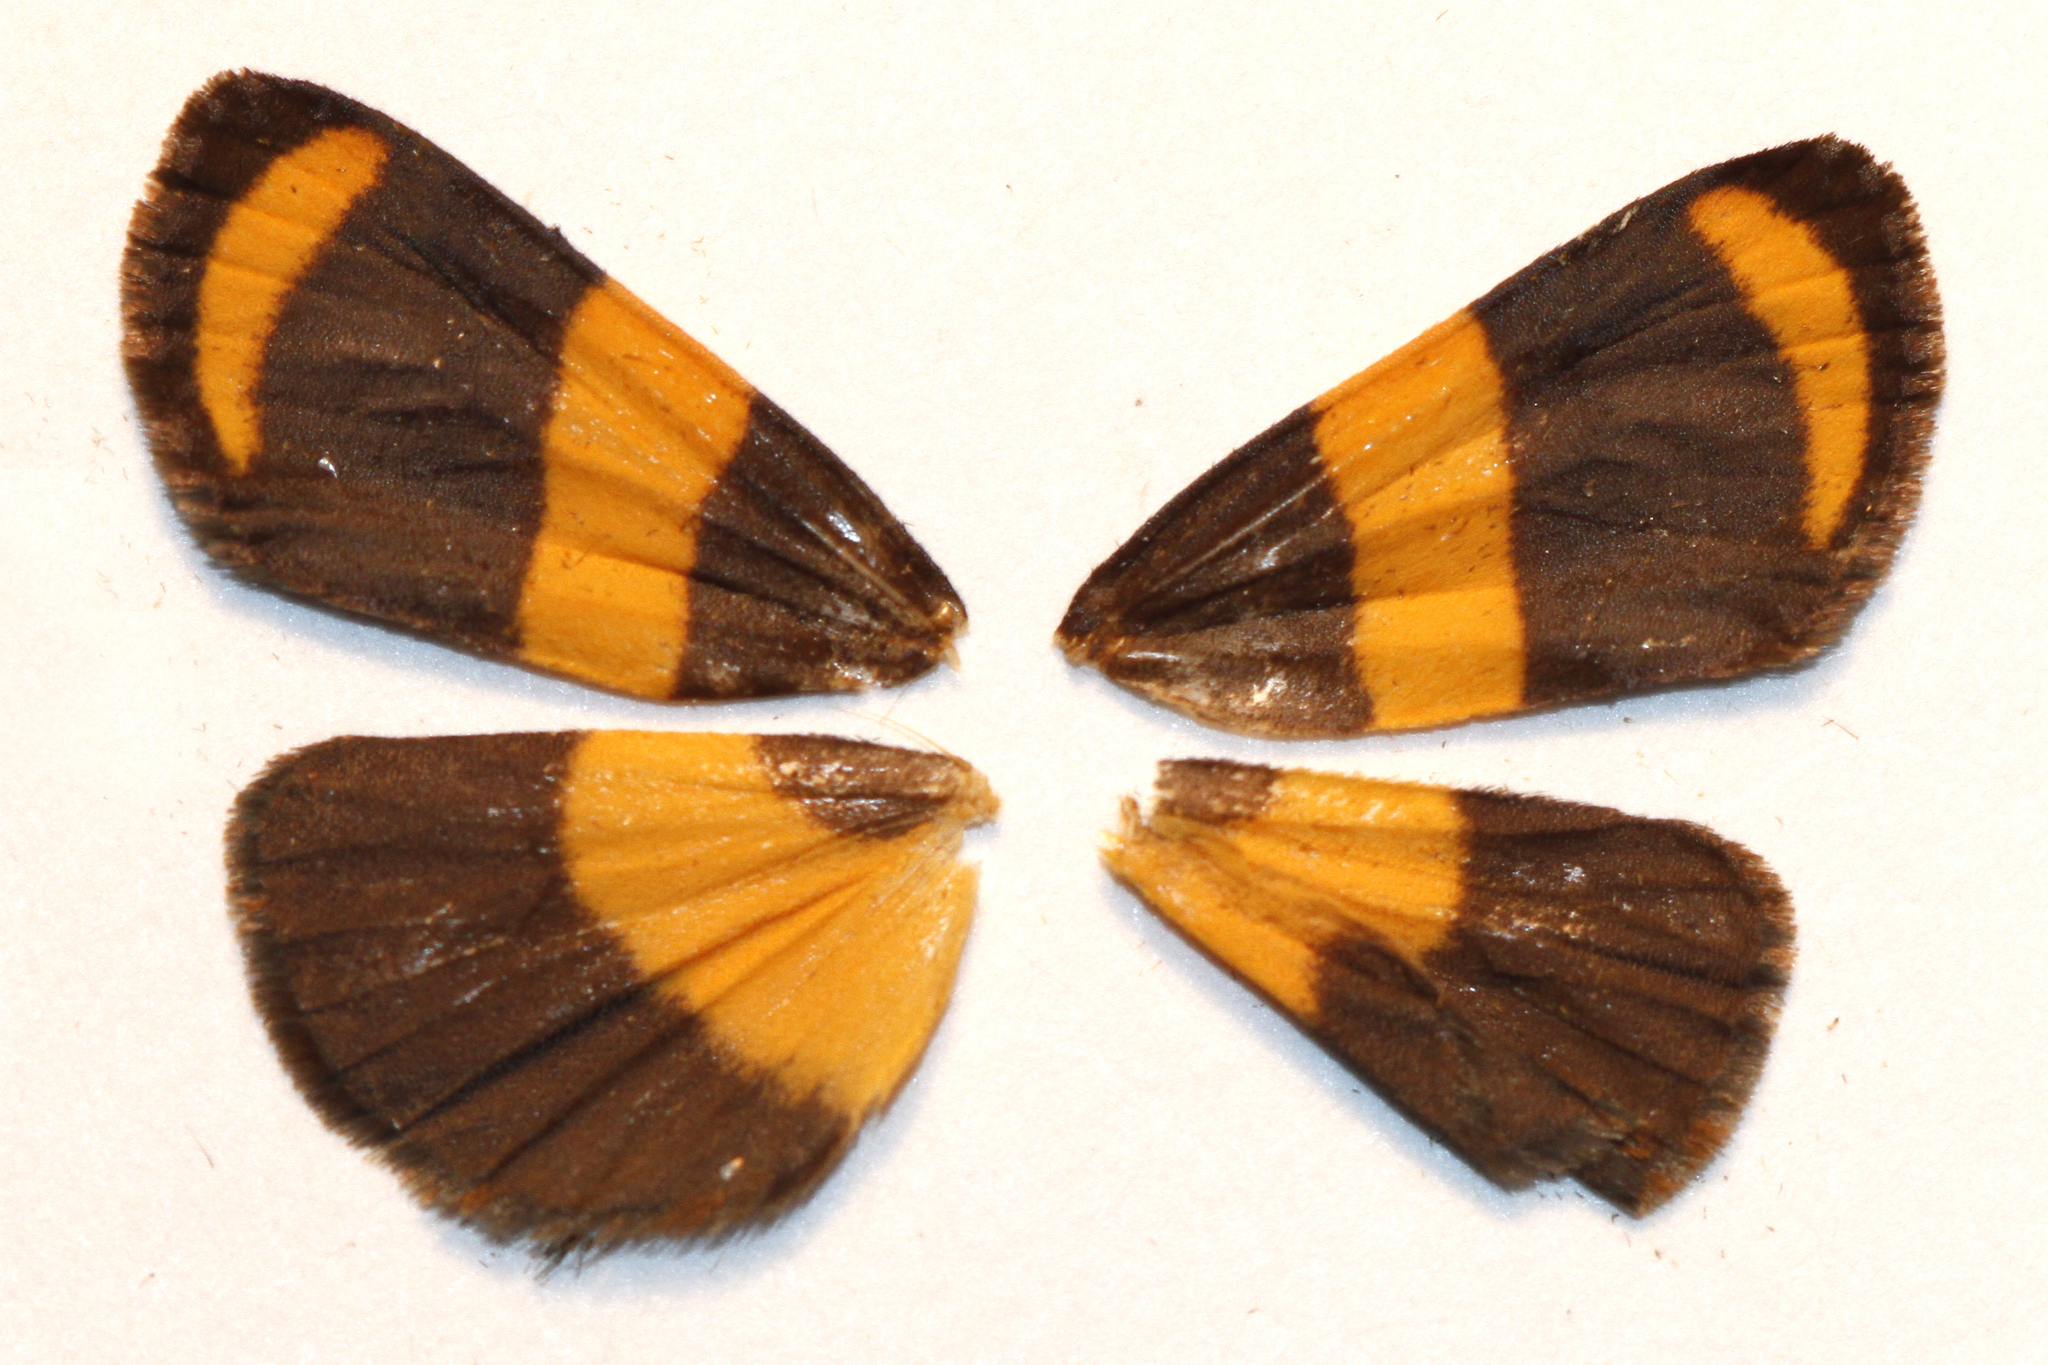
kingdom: Animalia
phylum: Arthropoda
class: Insecta
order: Lepidoptera
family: Erebidae
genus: Eudesmia
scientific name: Eudesmia arida
